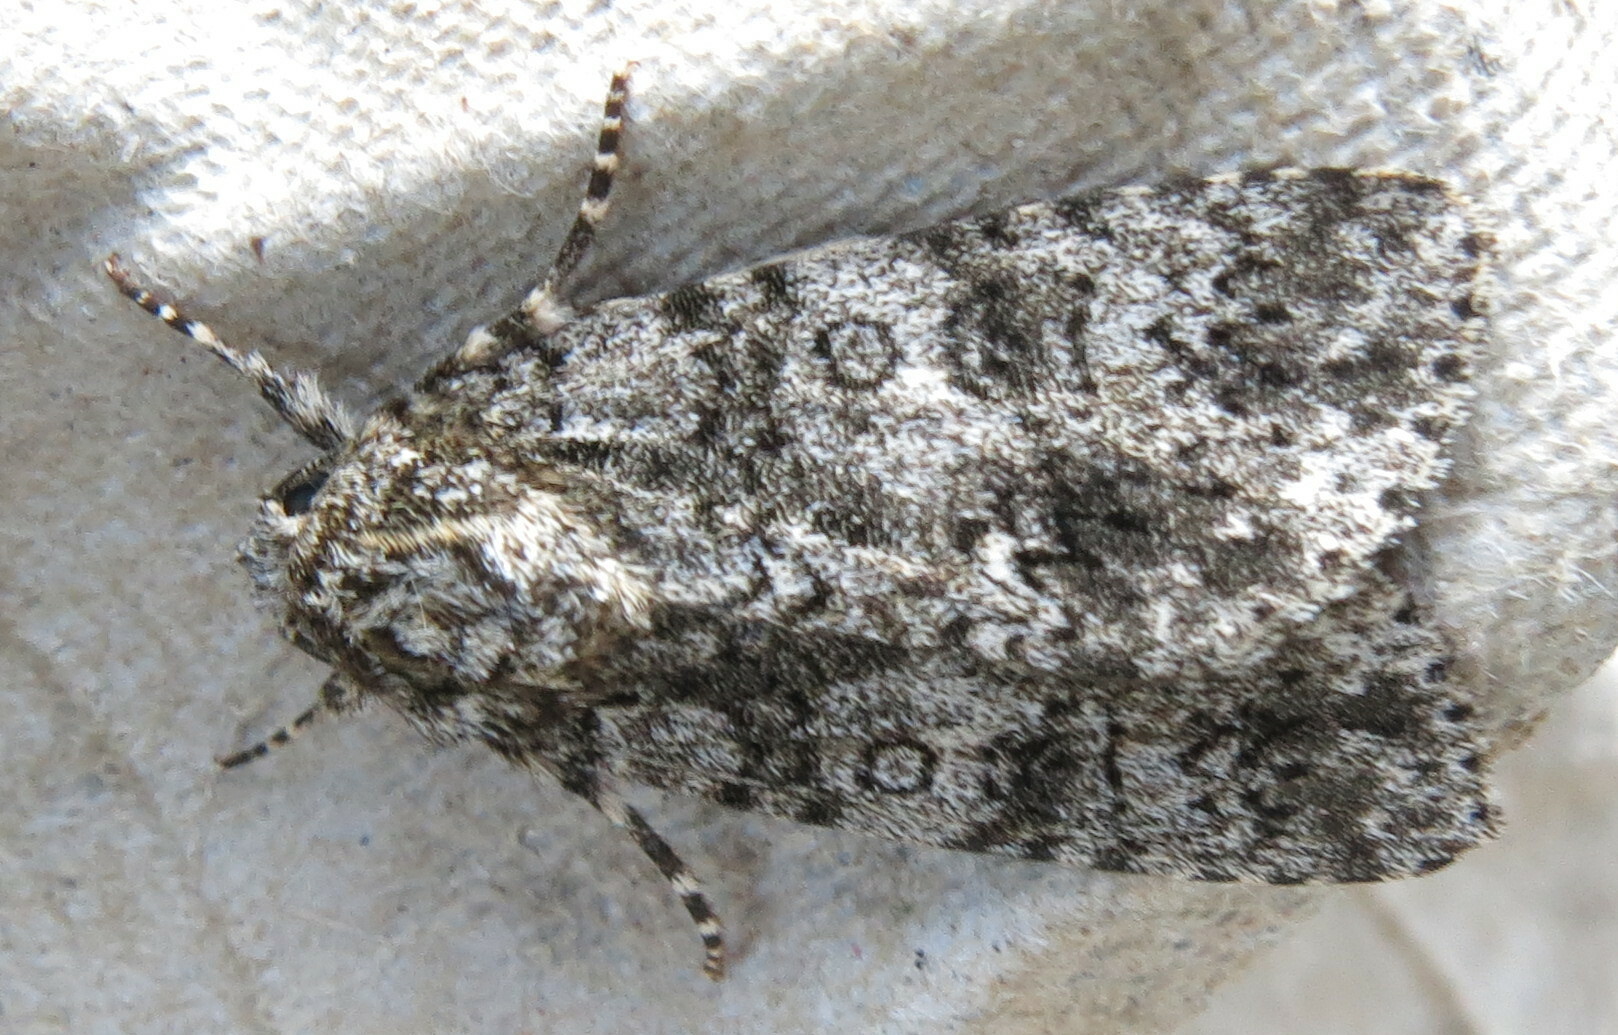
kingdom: Animalia
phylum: Arthropoda
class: Insecta
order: Lepidoptera
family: Noctuidae
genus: Acronicta
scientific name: Acronicta rumicis
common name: Knot grass
